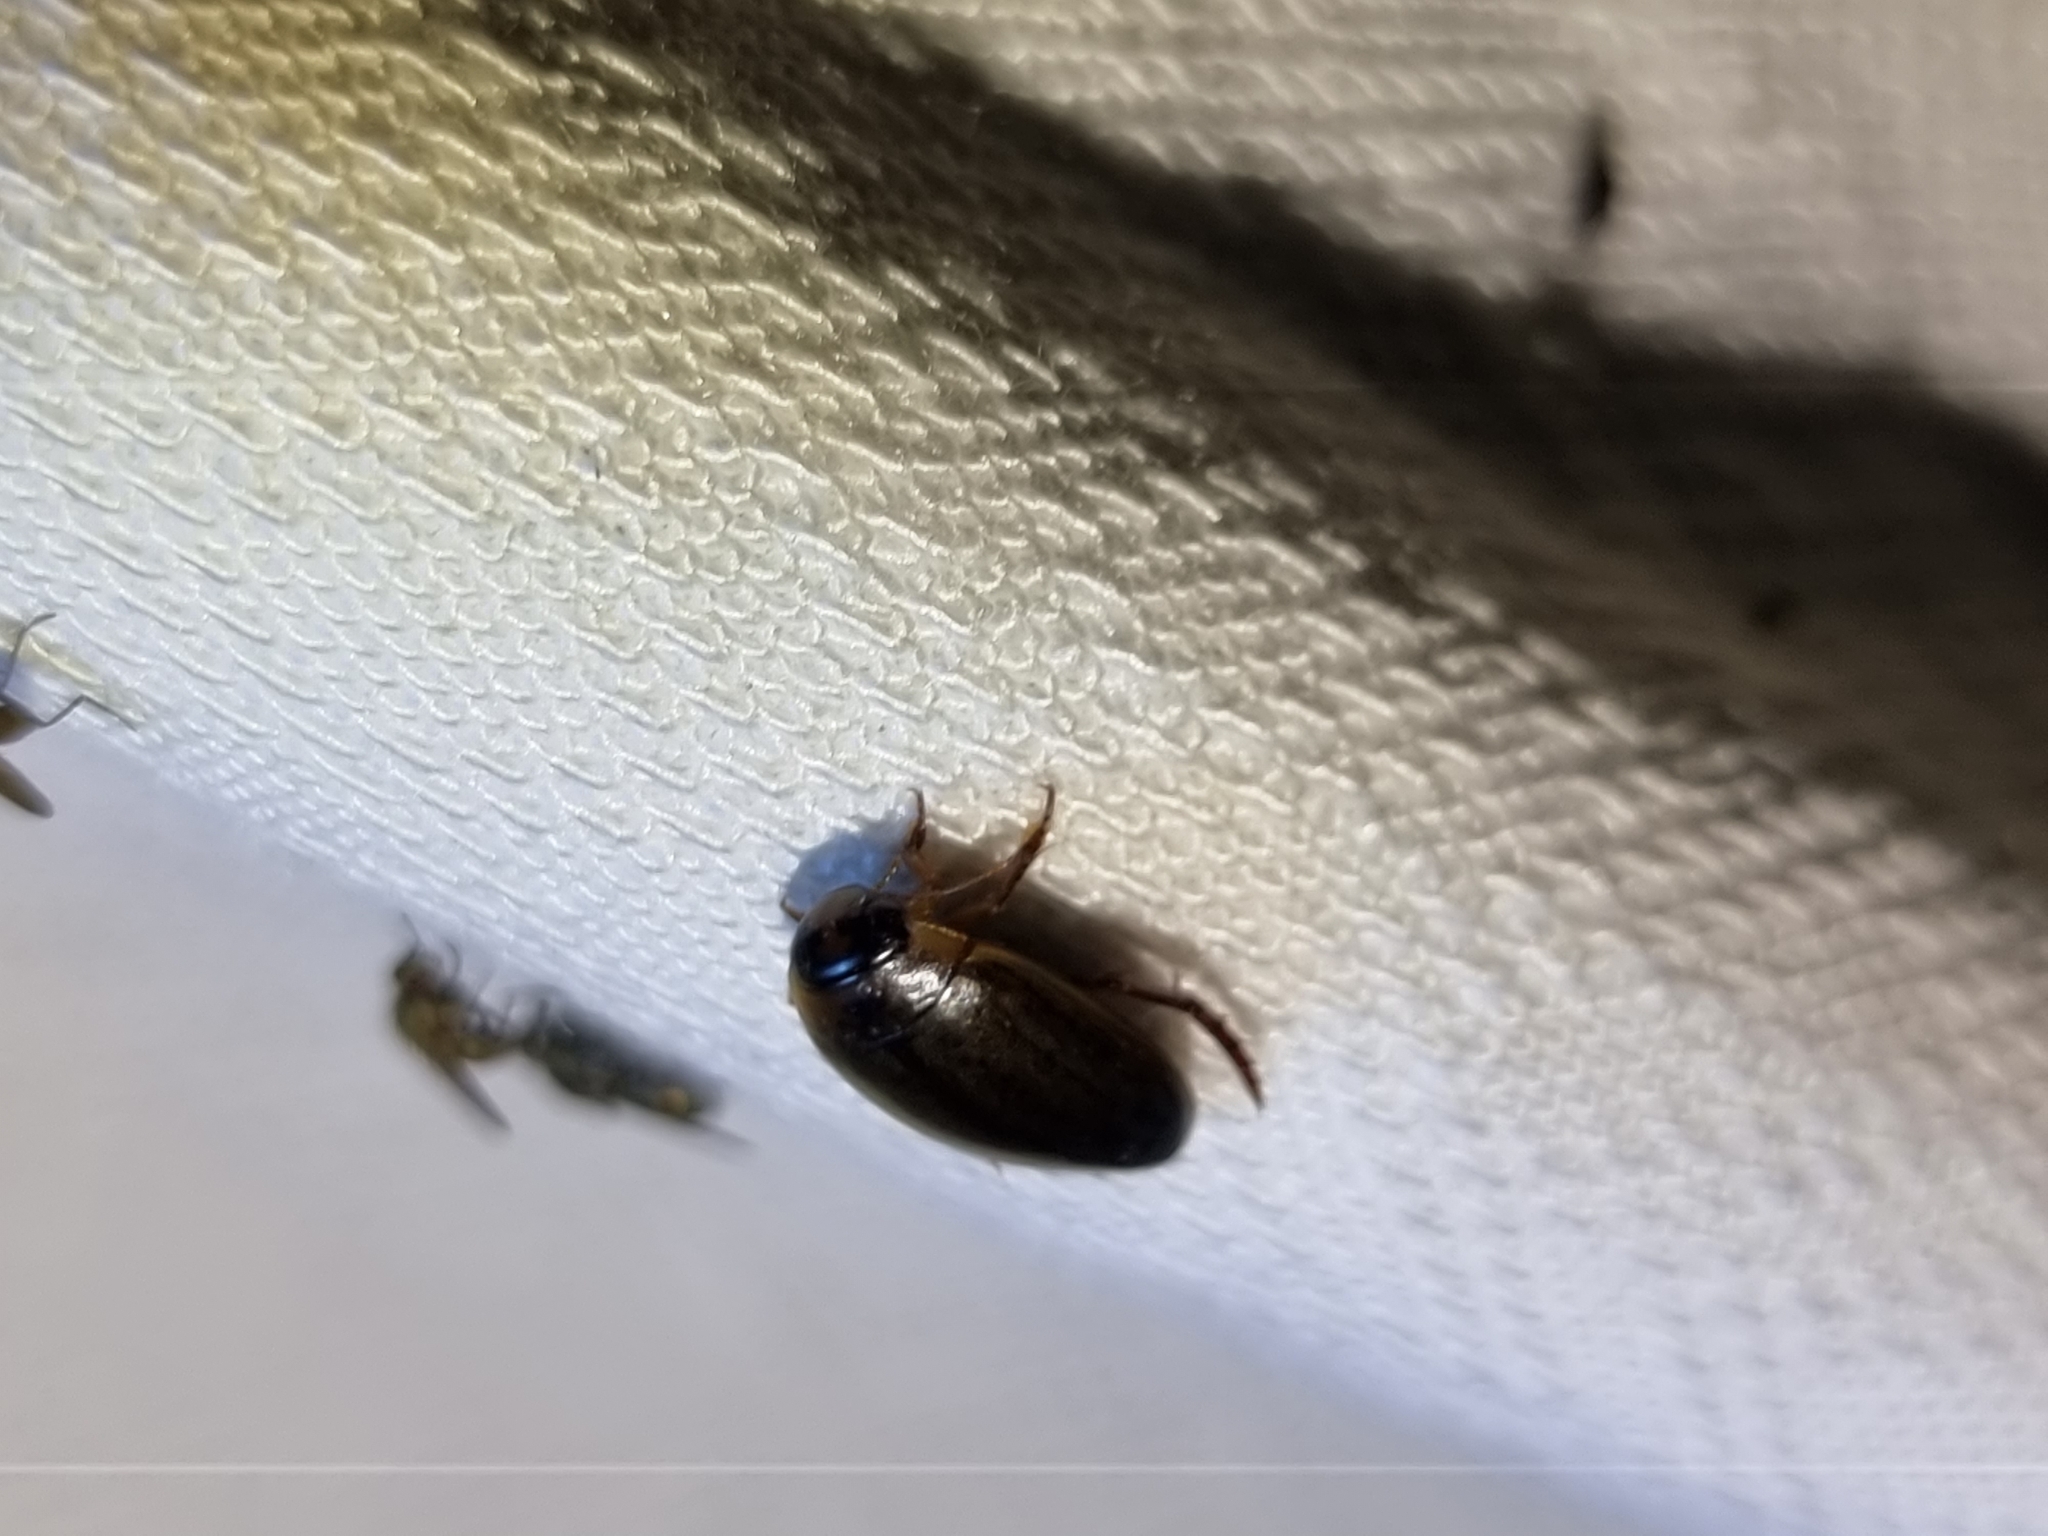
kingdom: Animalia
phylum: Arthropoda
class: Insecta
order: Coleoptera
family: Dytiscidae
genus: Rhantus
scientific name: Rhantus suturalis
